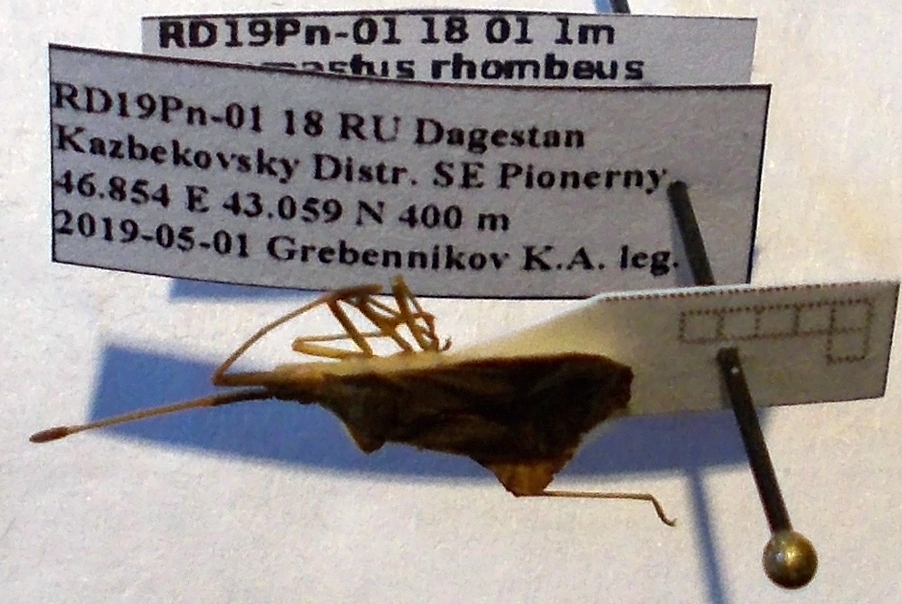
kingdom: Animalia
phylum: Arthropoda
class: Insecta
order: Hemiptera
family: Coreidae
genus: Syromastus
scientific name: Syromastus rhombeus
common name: Rhombic leatherbug
